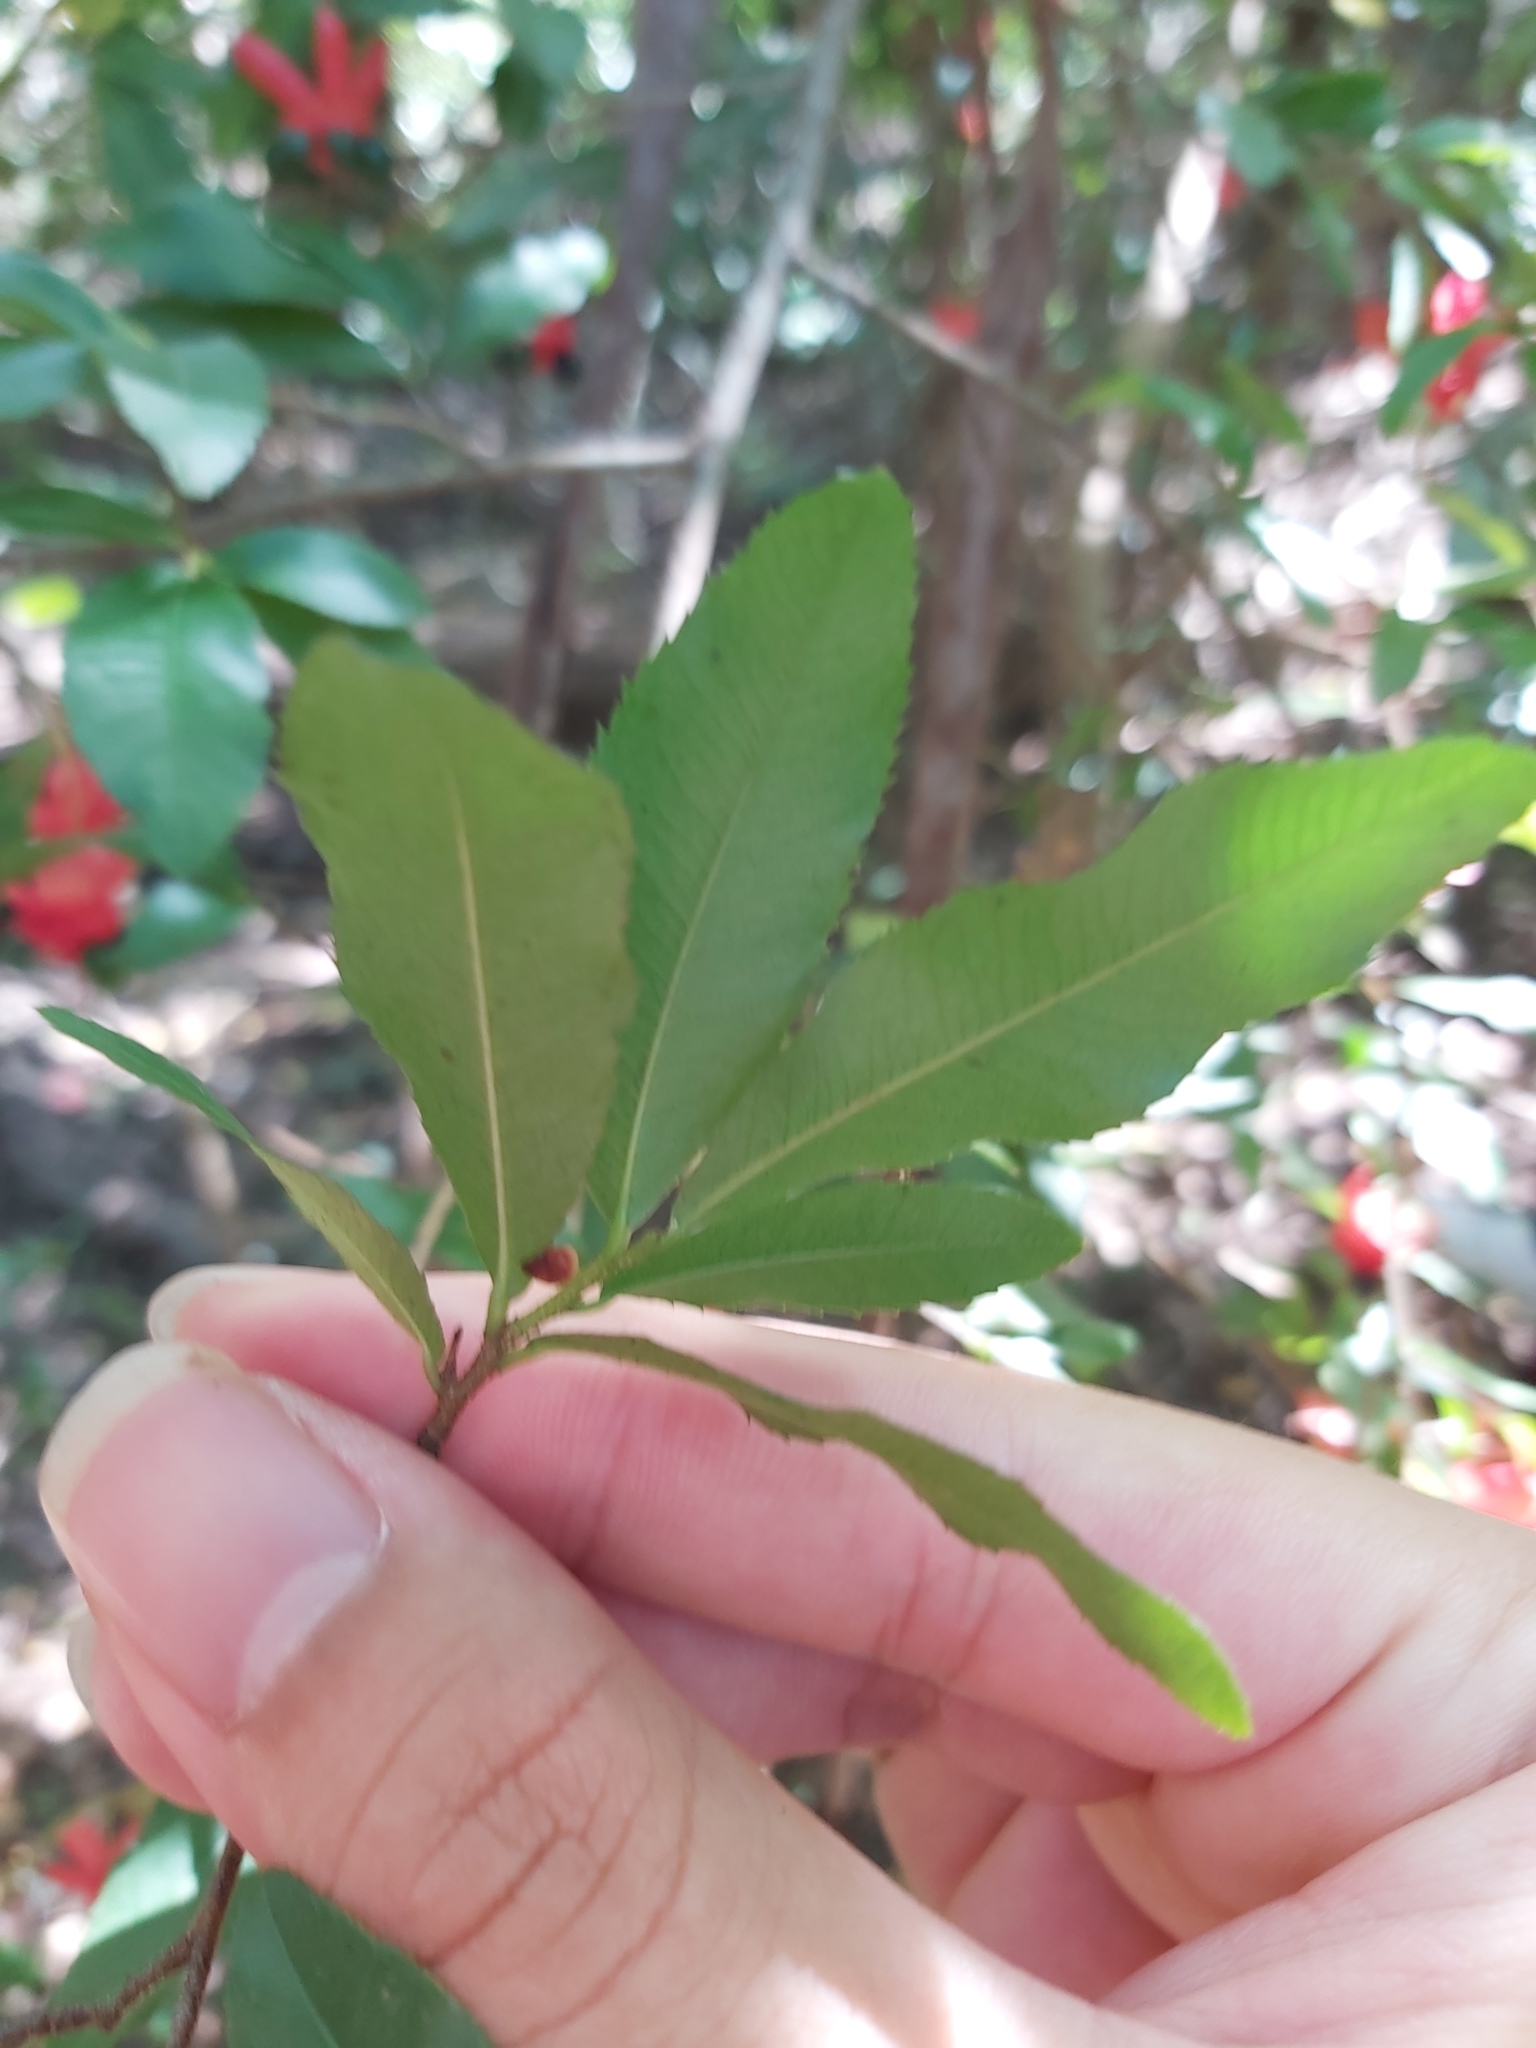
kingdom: Plantae
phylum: Tracheophyta
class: Magnoliopsida
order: Malpighiales
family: Ochnaceae
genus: Ochna
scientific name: Ochna serrulata
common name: Mickey mouse plant
